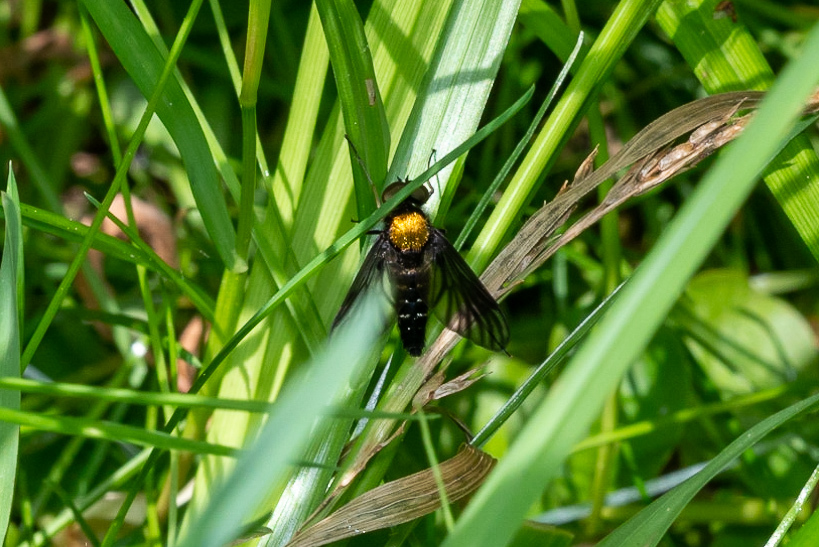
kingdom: Animalia
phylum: Arthropoda
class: Insecta
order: Diptera
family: Rhagionidae
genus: Chrysopilus
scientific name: Chrysopilus thoracicus
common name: Golden-backed snipe fly
